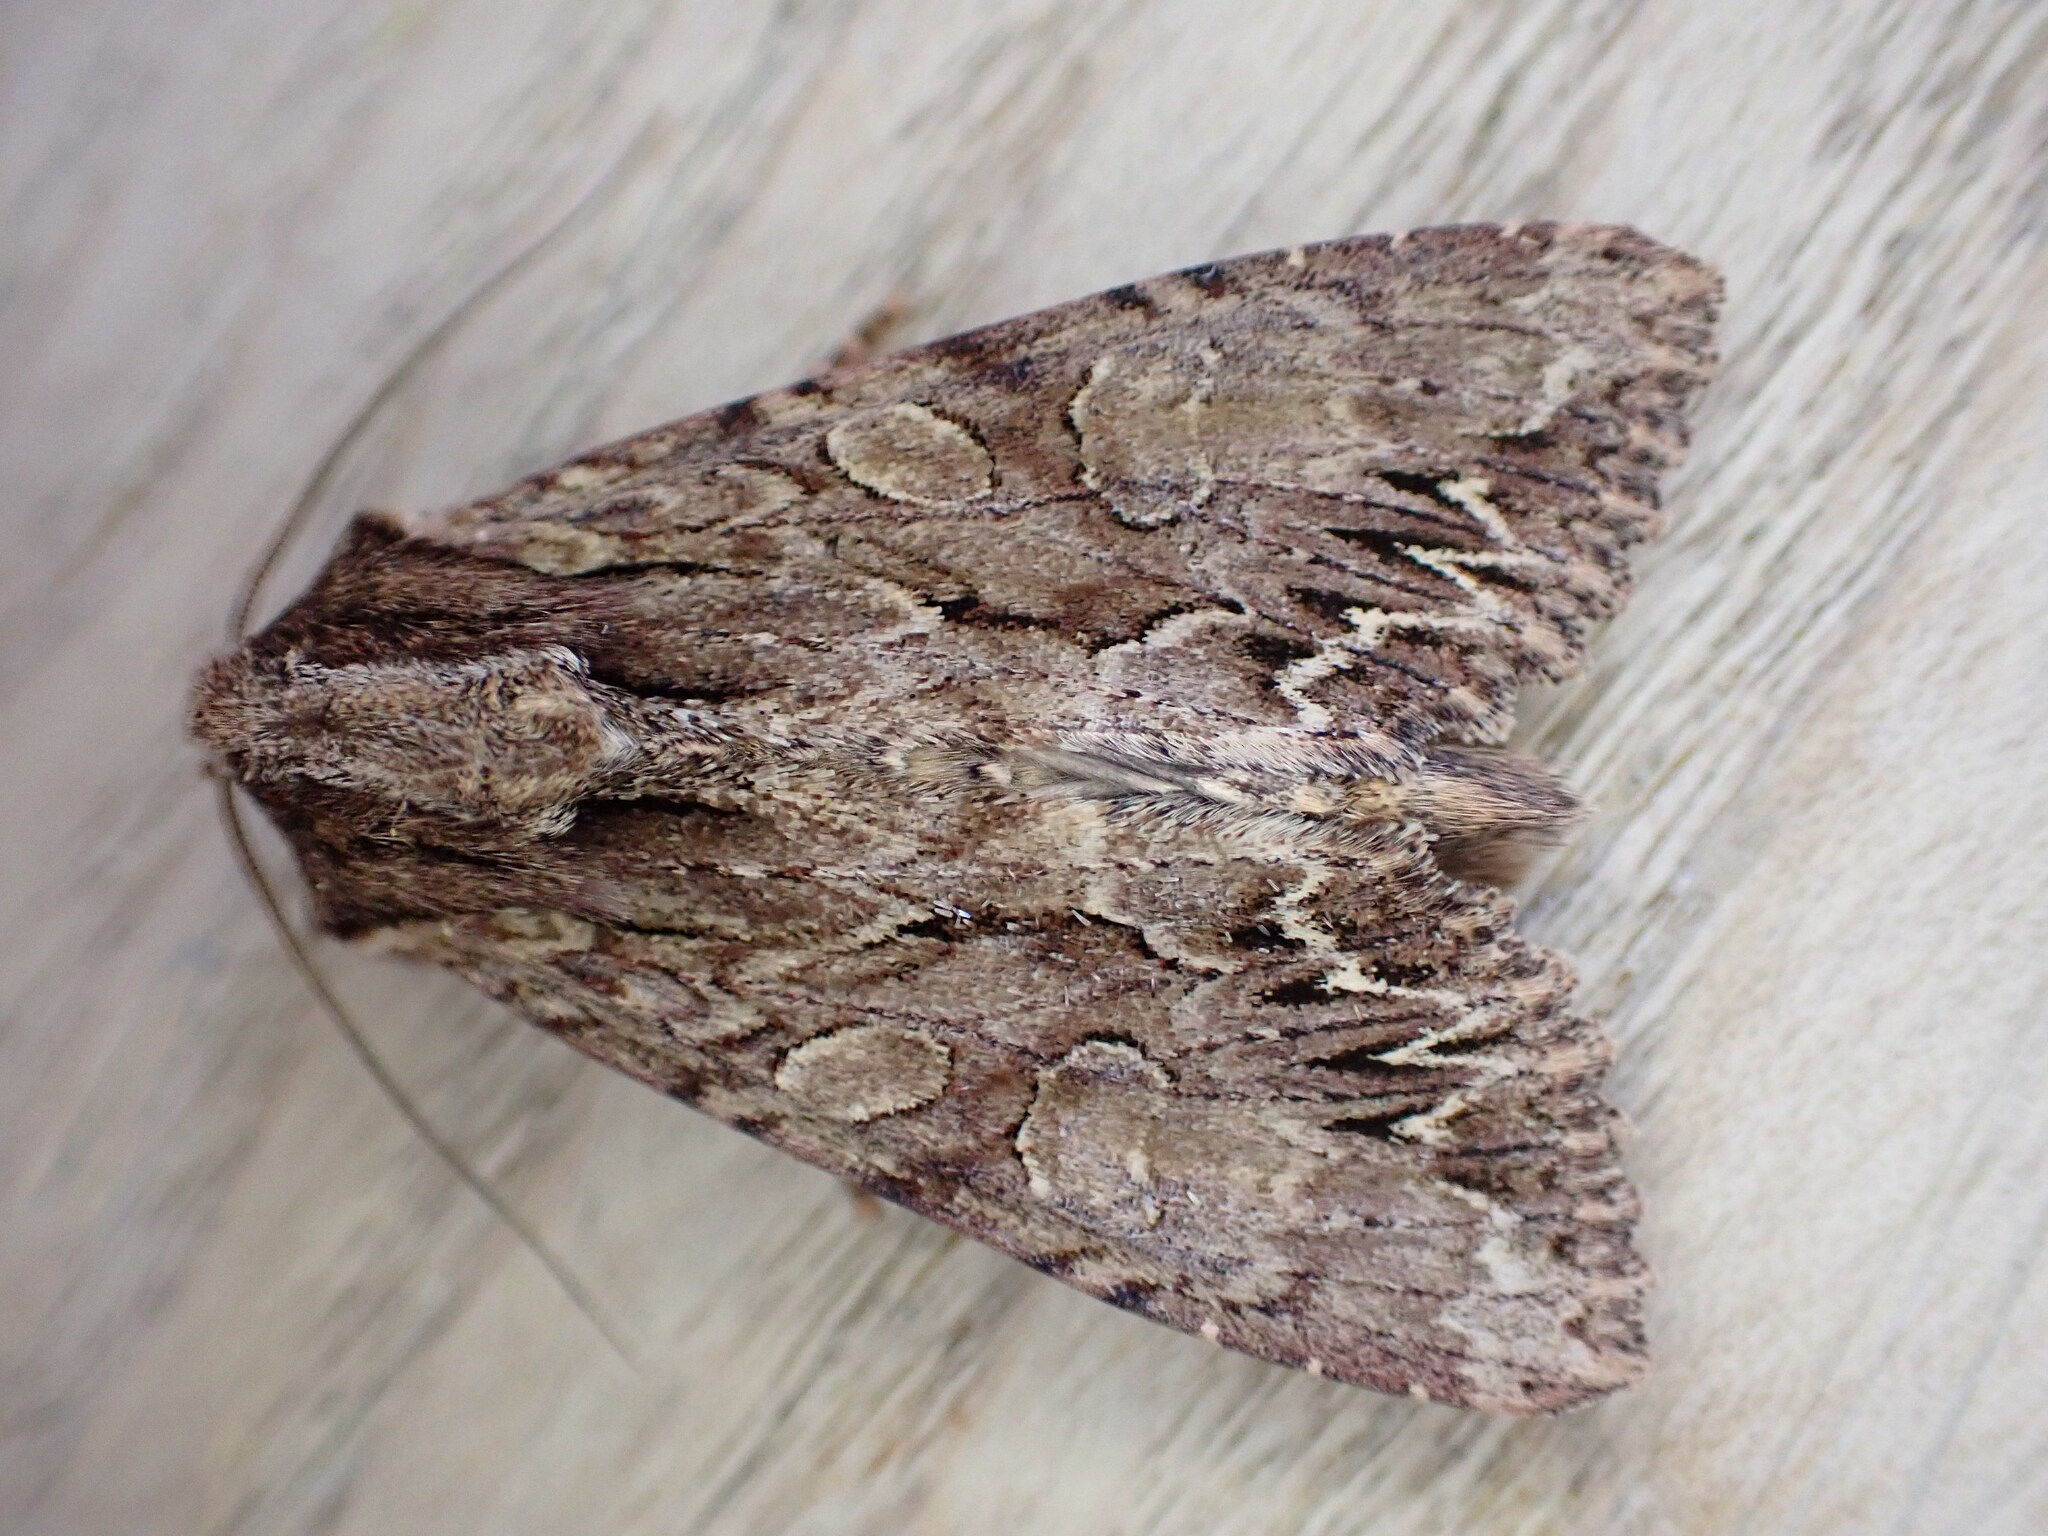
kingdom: Animalia
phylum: Arthropoda
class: Insecta
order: Lepidoptera
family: Noctuidae
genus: Apamea
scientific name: Apamea monoglypha
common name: Dark arches
